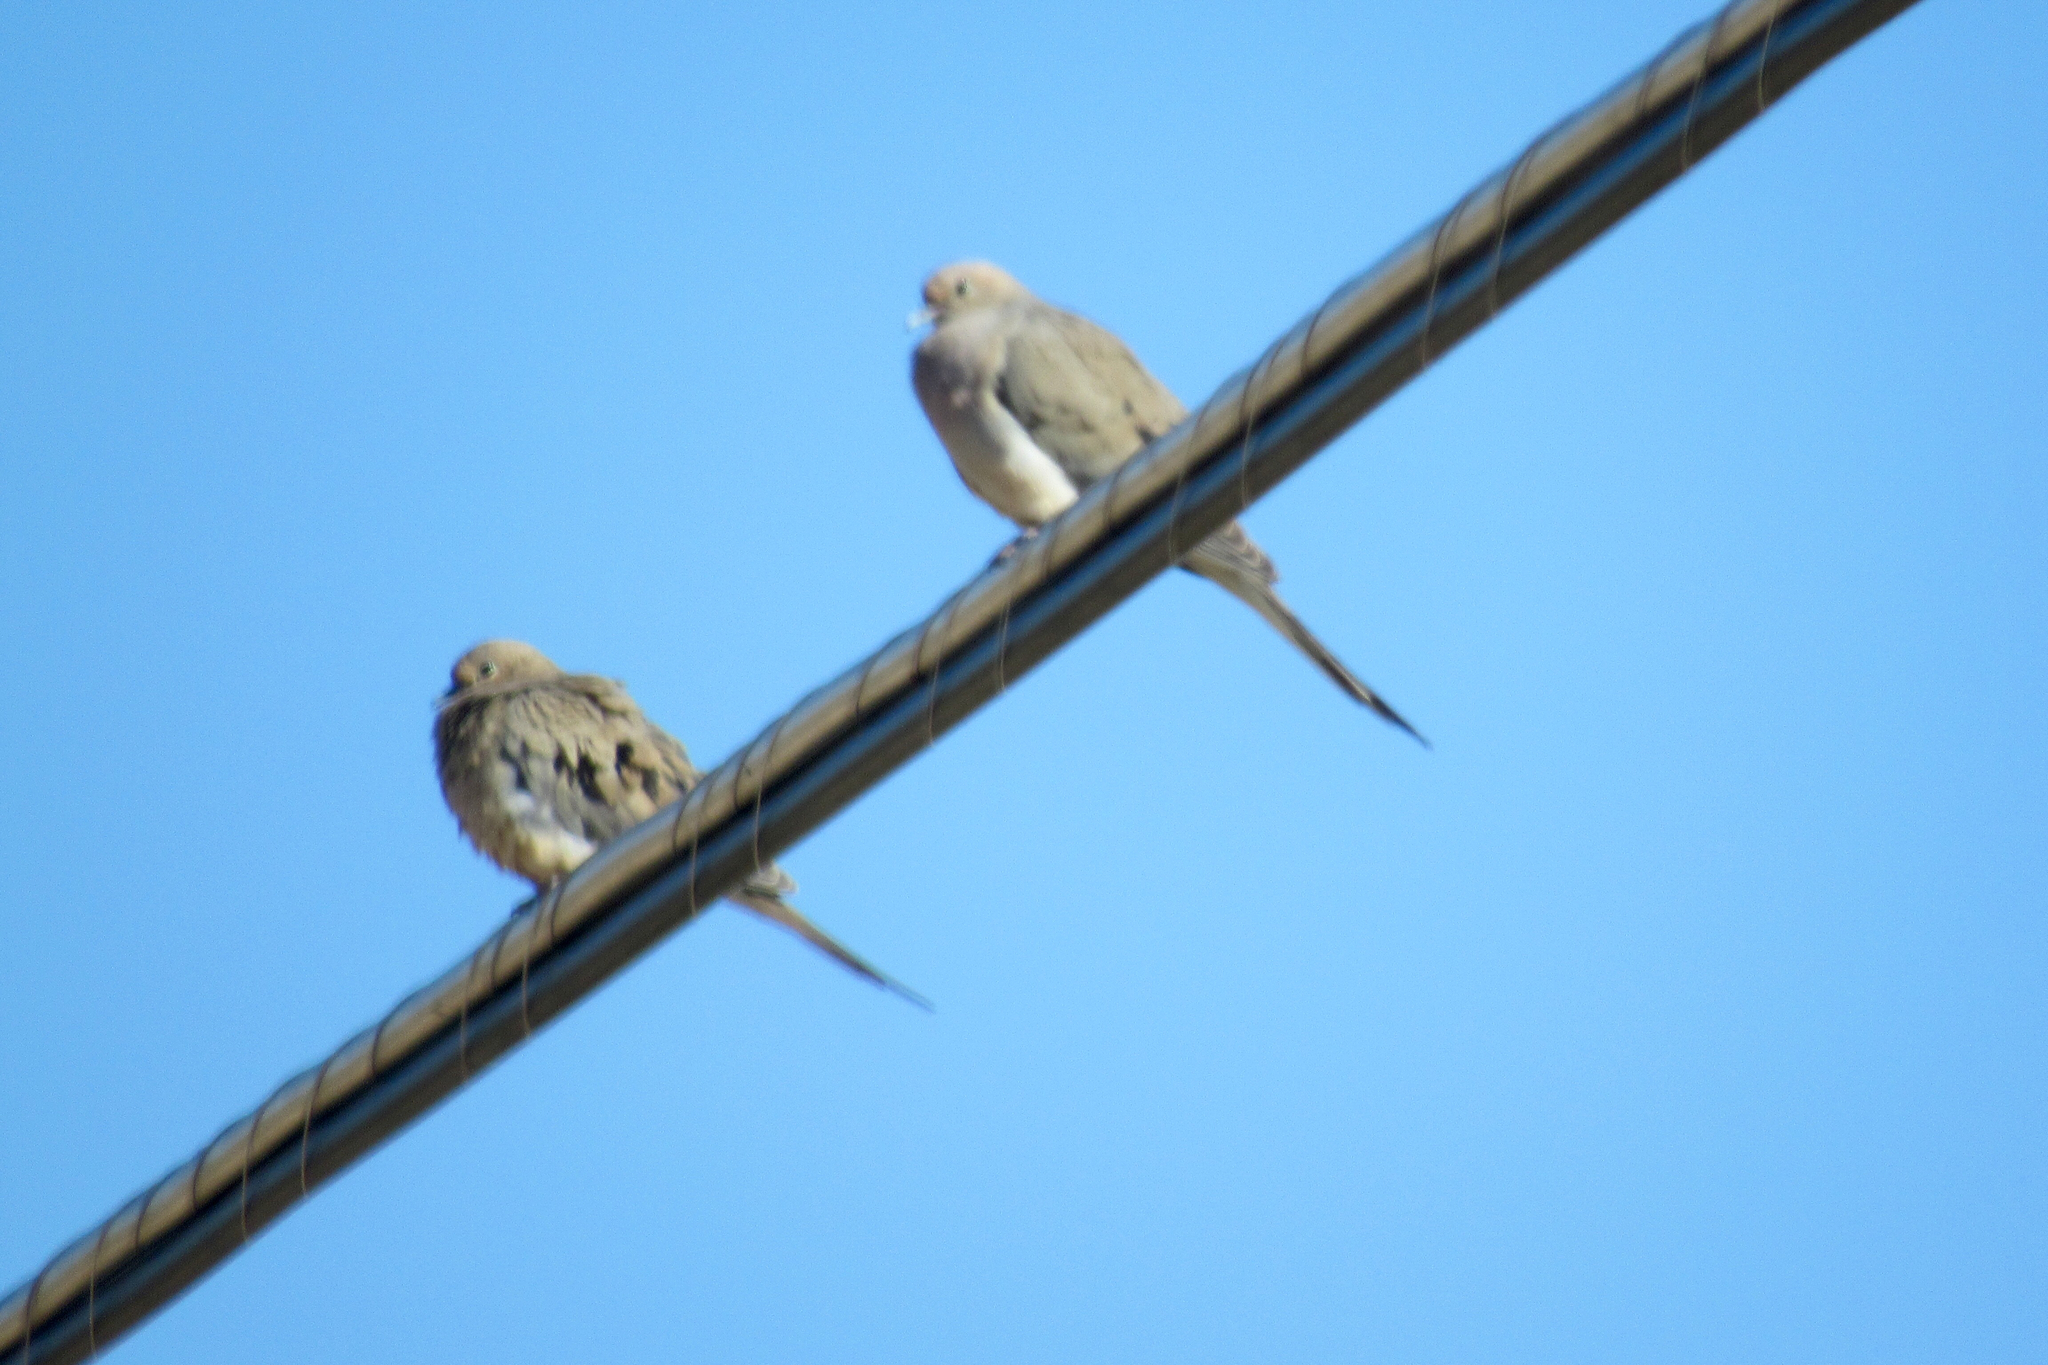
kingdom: Animalia
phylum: Chordata
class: Aves
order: Columbiformes
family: Columbidae
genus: Zenaida
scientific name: Zenaida macroura
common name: Mourning dove
